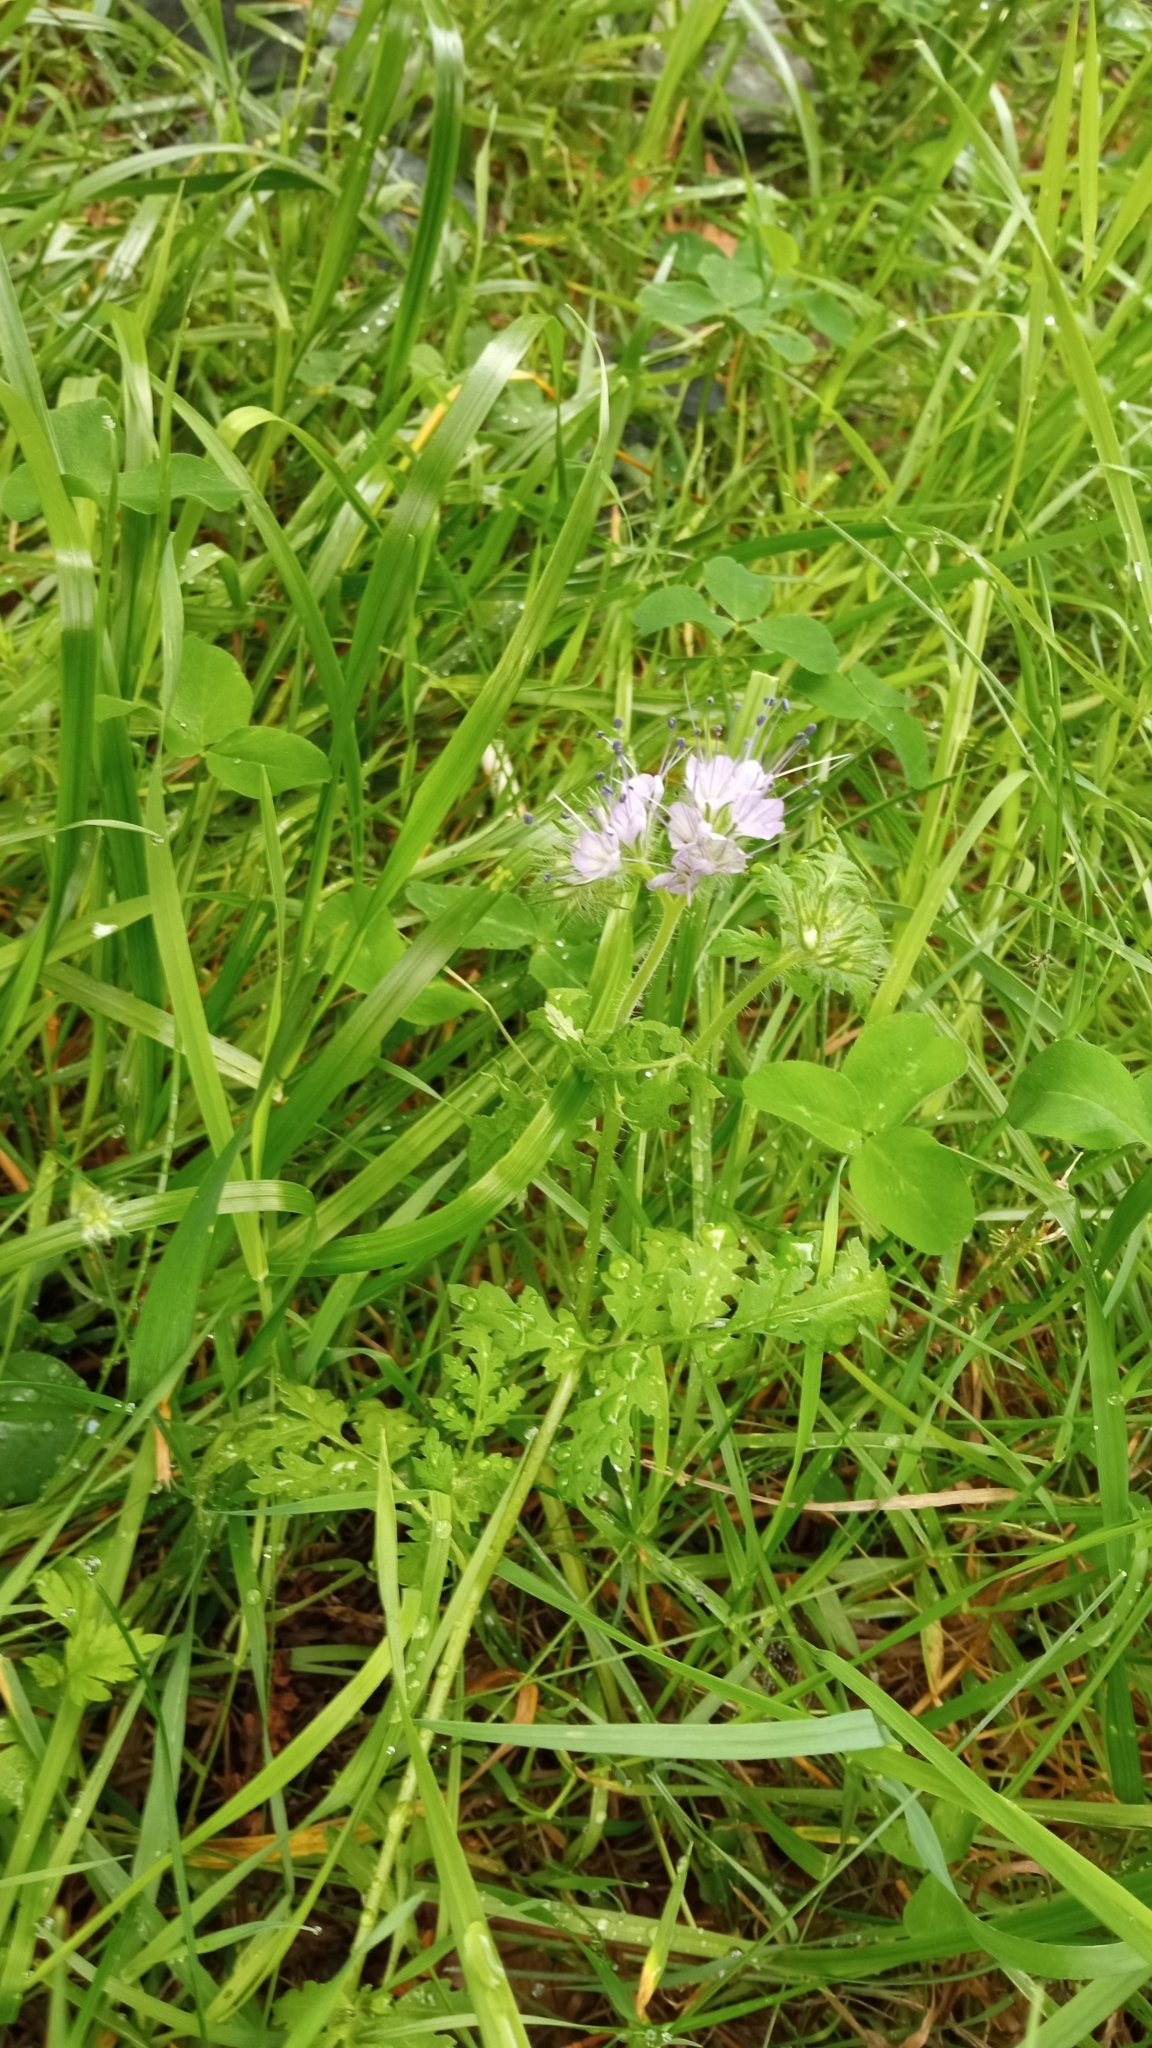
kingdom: Plantae
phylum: Tracheophyta
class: Magnoliopsida
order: Boraginales
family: Hydrophyllaceae
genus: Phacelia
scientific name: Phacelia tanacetifolia
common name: Phacelia
